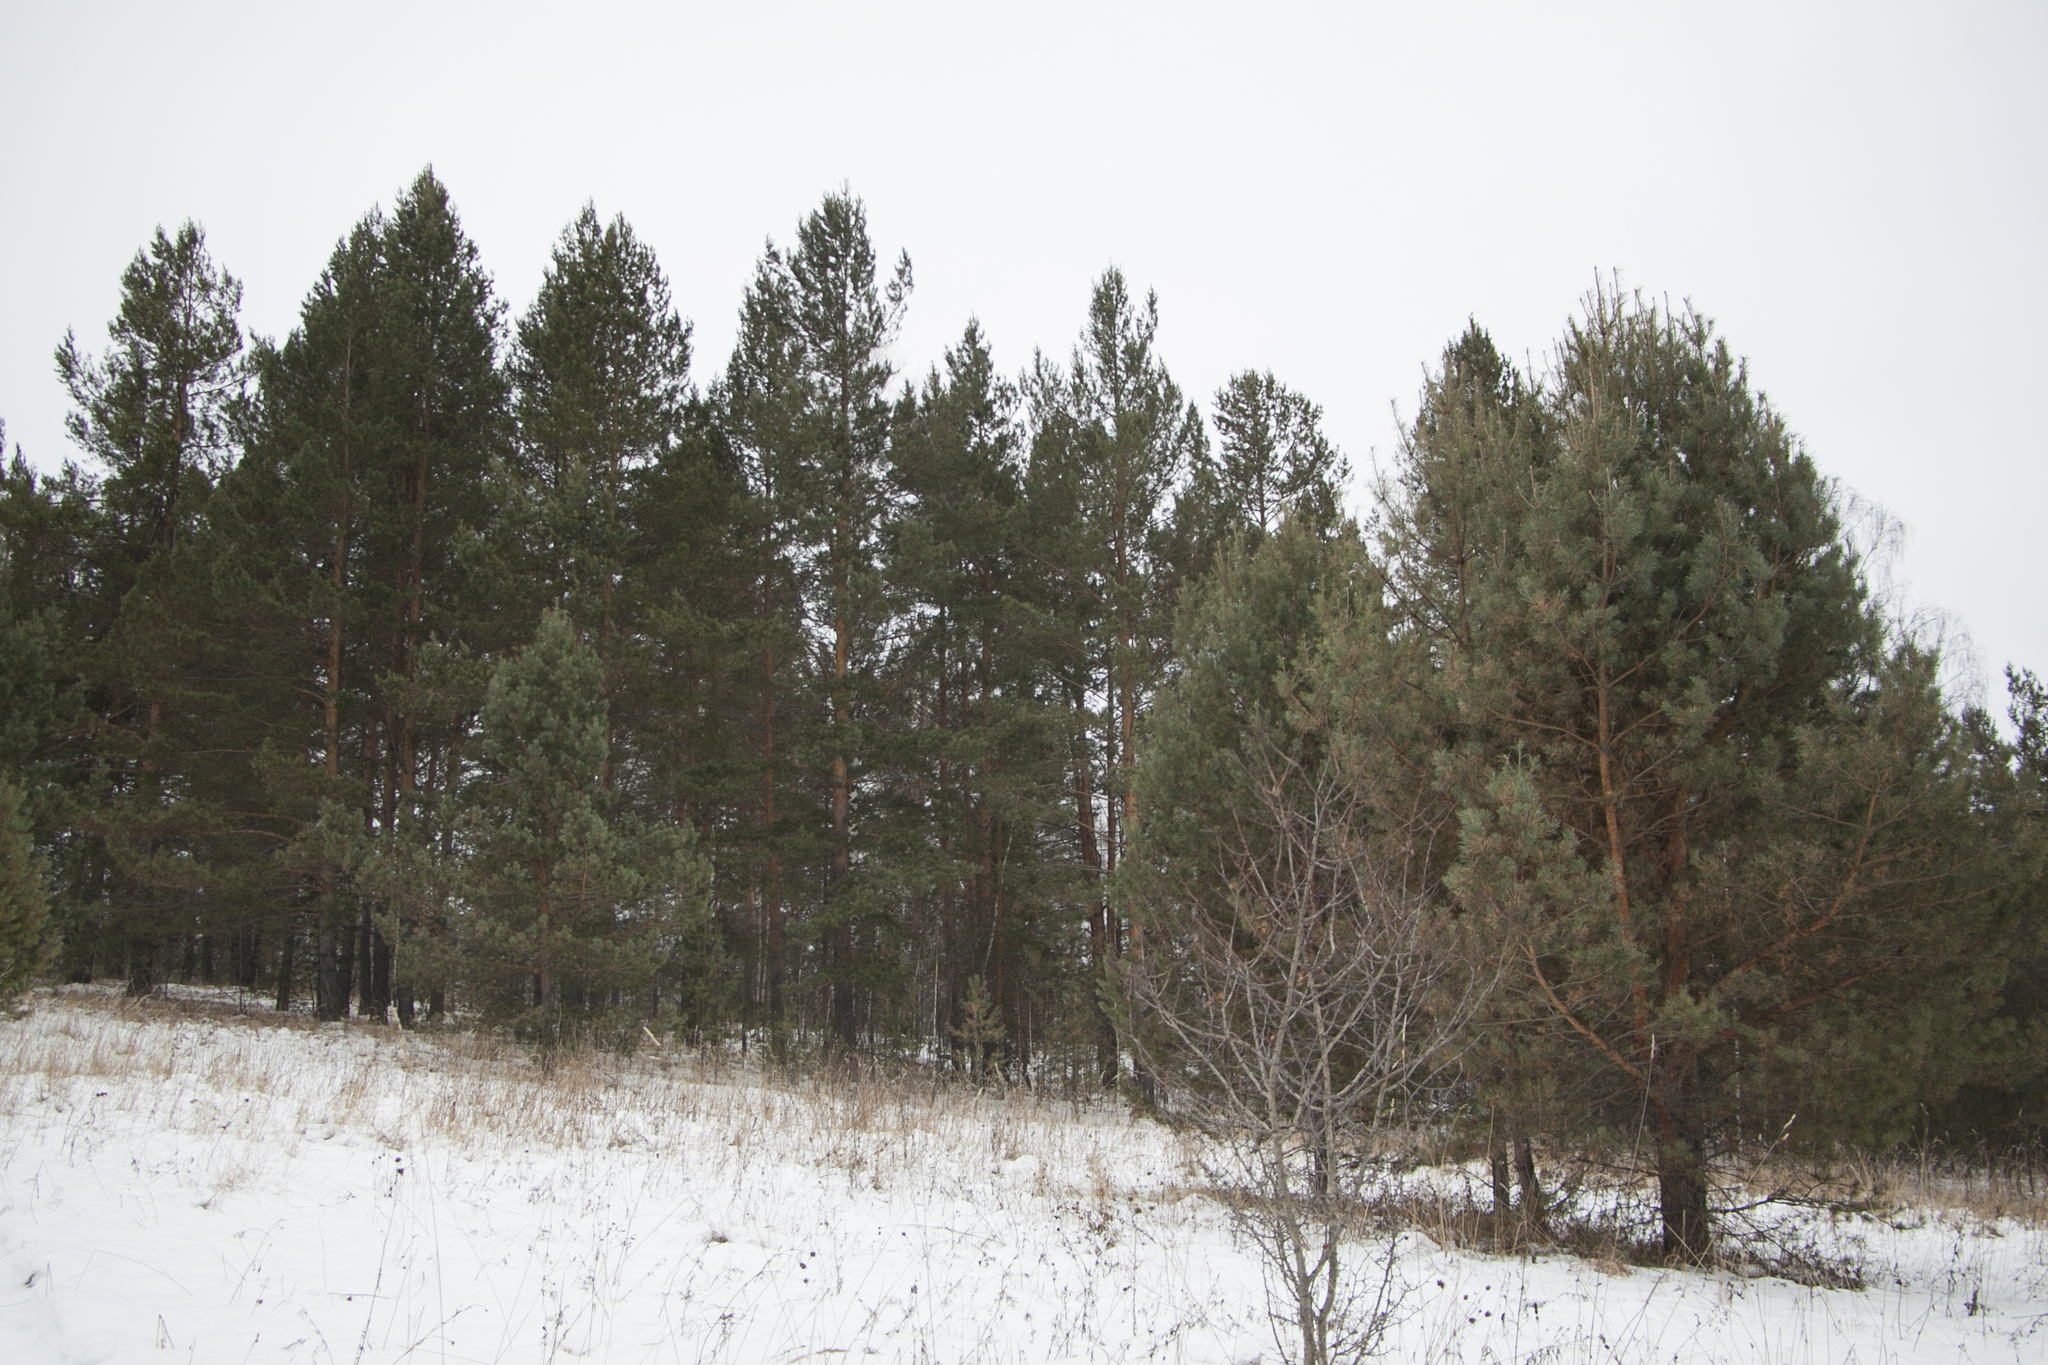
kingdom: Plantae
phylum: Tracheophyta
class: Pinopsida
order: Pinales
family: Pinaceae
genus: Pinus
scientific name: Pinus sylvestris
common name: Scots pine
